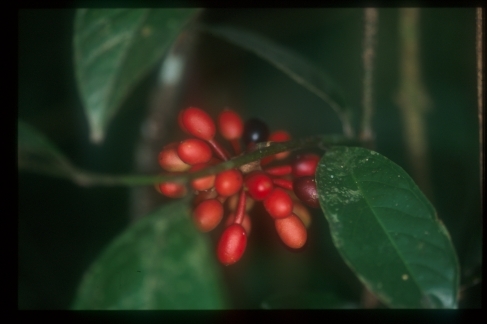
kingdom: Plantae
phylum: Tracheophyta
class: Magnoliopsida
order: Magnoliales
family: Annonaceae
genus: Cremastosperma
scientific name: Cremastosperma yamayakatense
